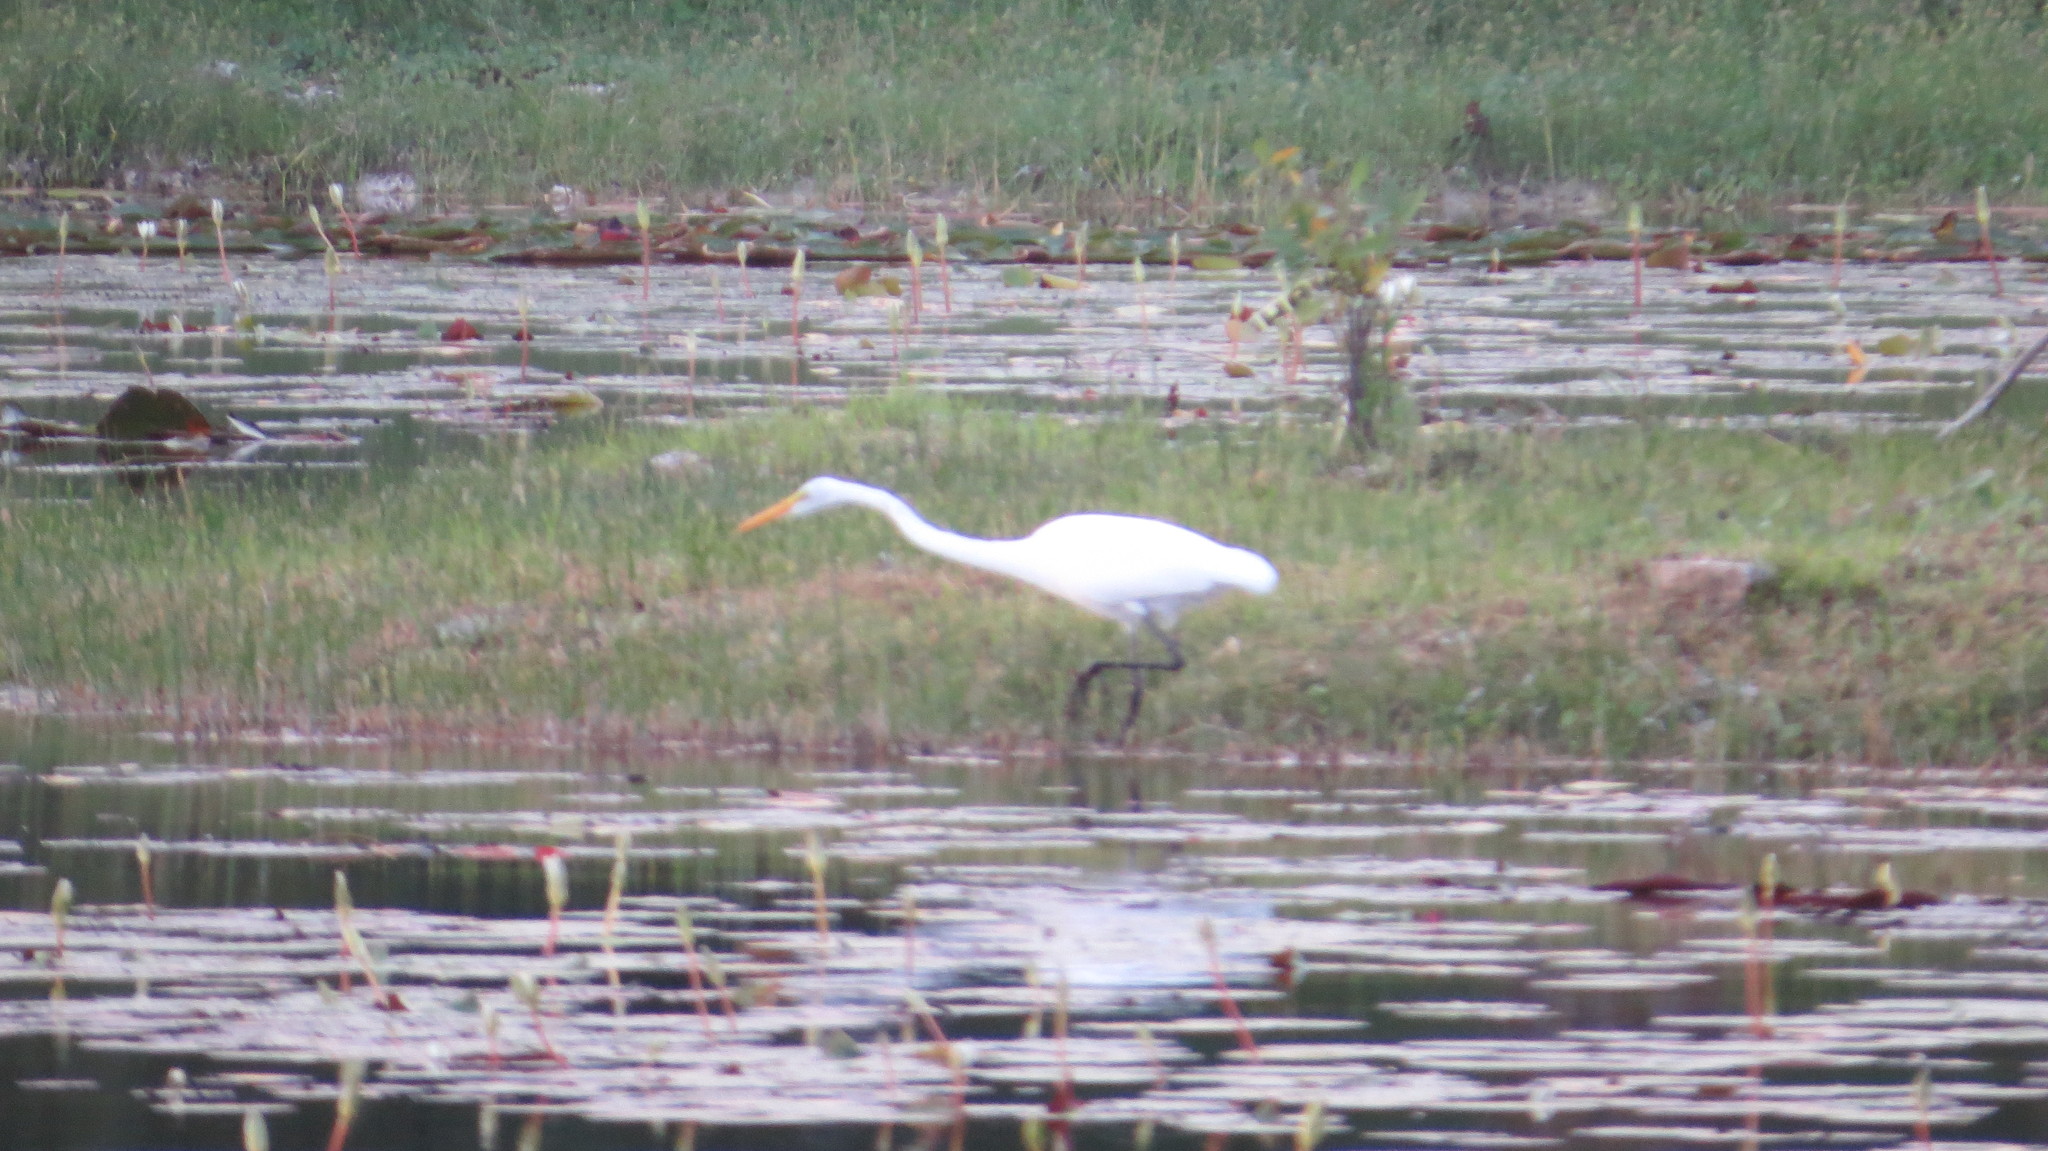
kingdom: Animalia
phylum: Chordata
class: Aves
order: Pelecaniformes
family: Ardeidae
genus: Ardea
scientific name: Ardea alba
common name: Great egret
